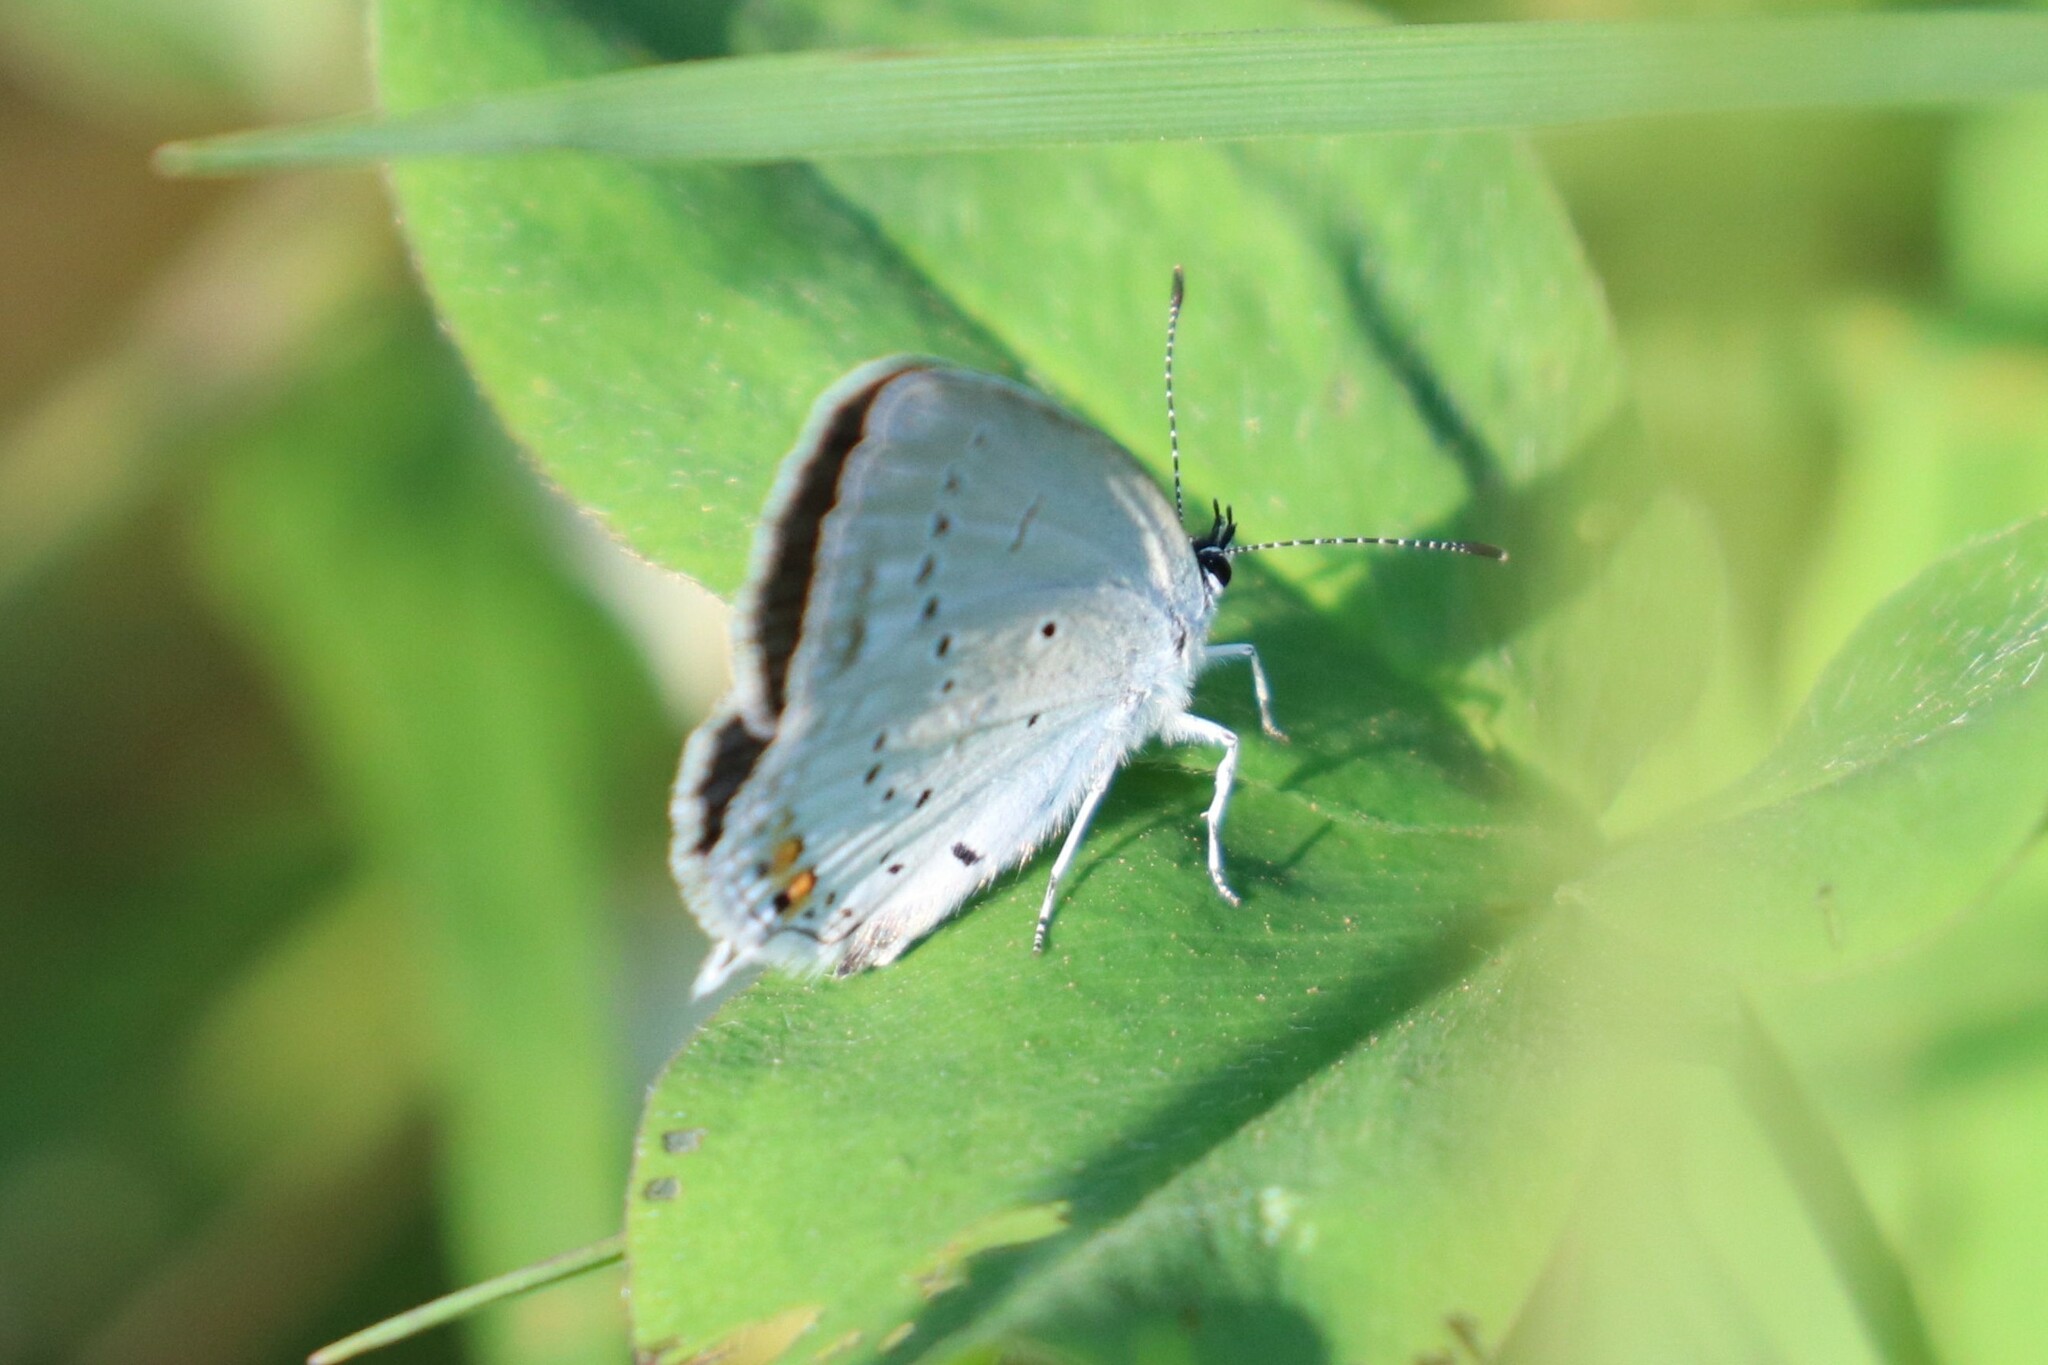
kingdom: Animalia
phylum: Arthropoda
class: Insecta
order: Lepidoptera
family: Lycaenidae
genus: Elkalyce
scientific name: Elkalyce argiades
